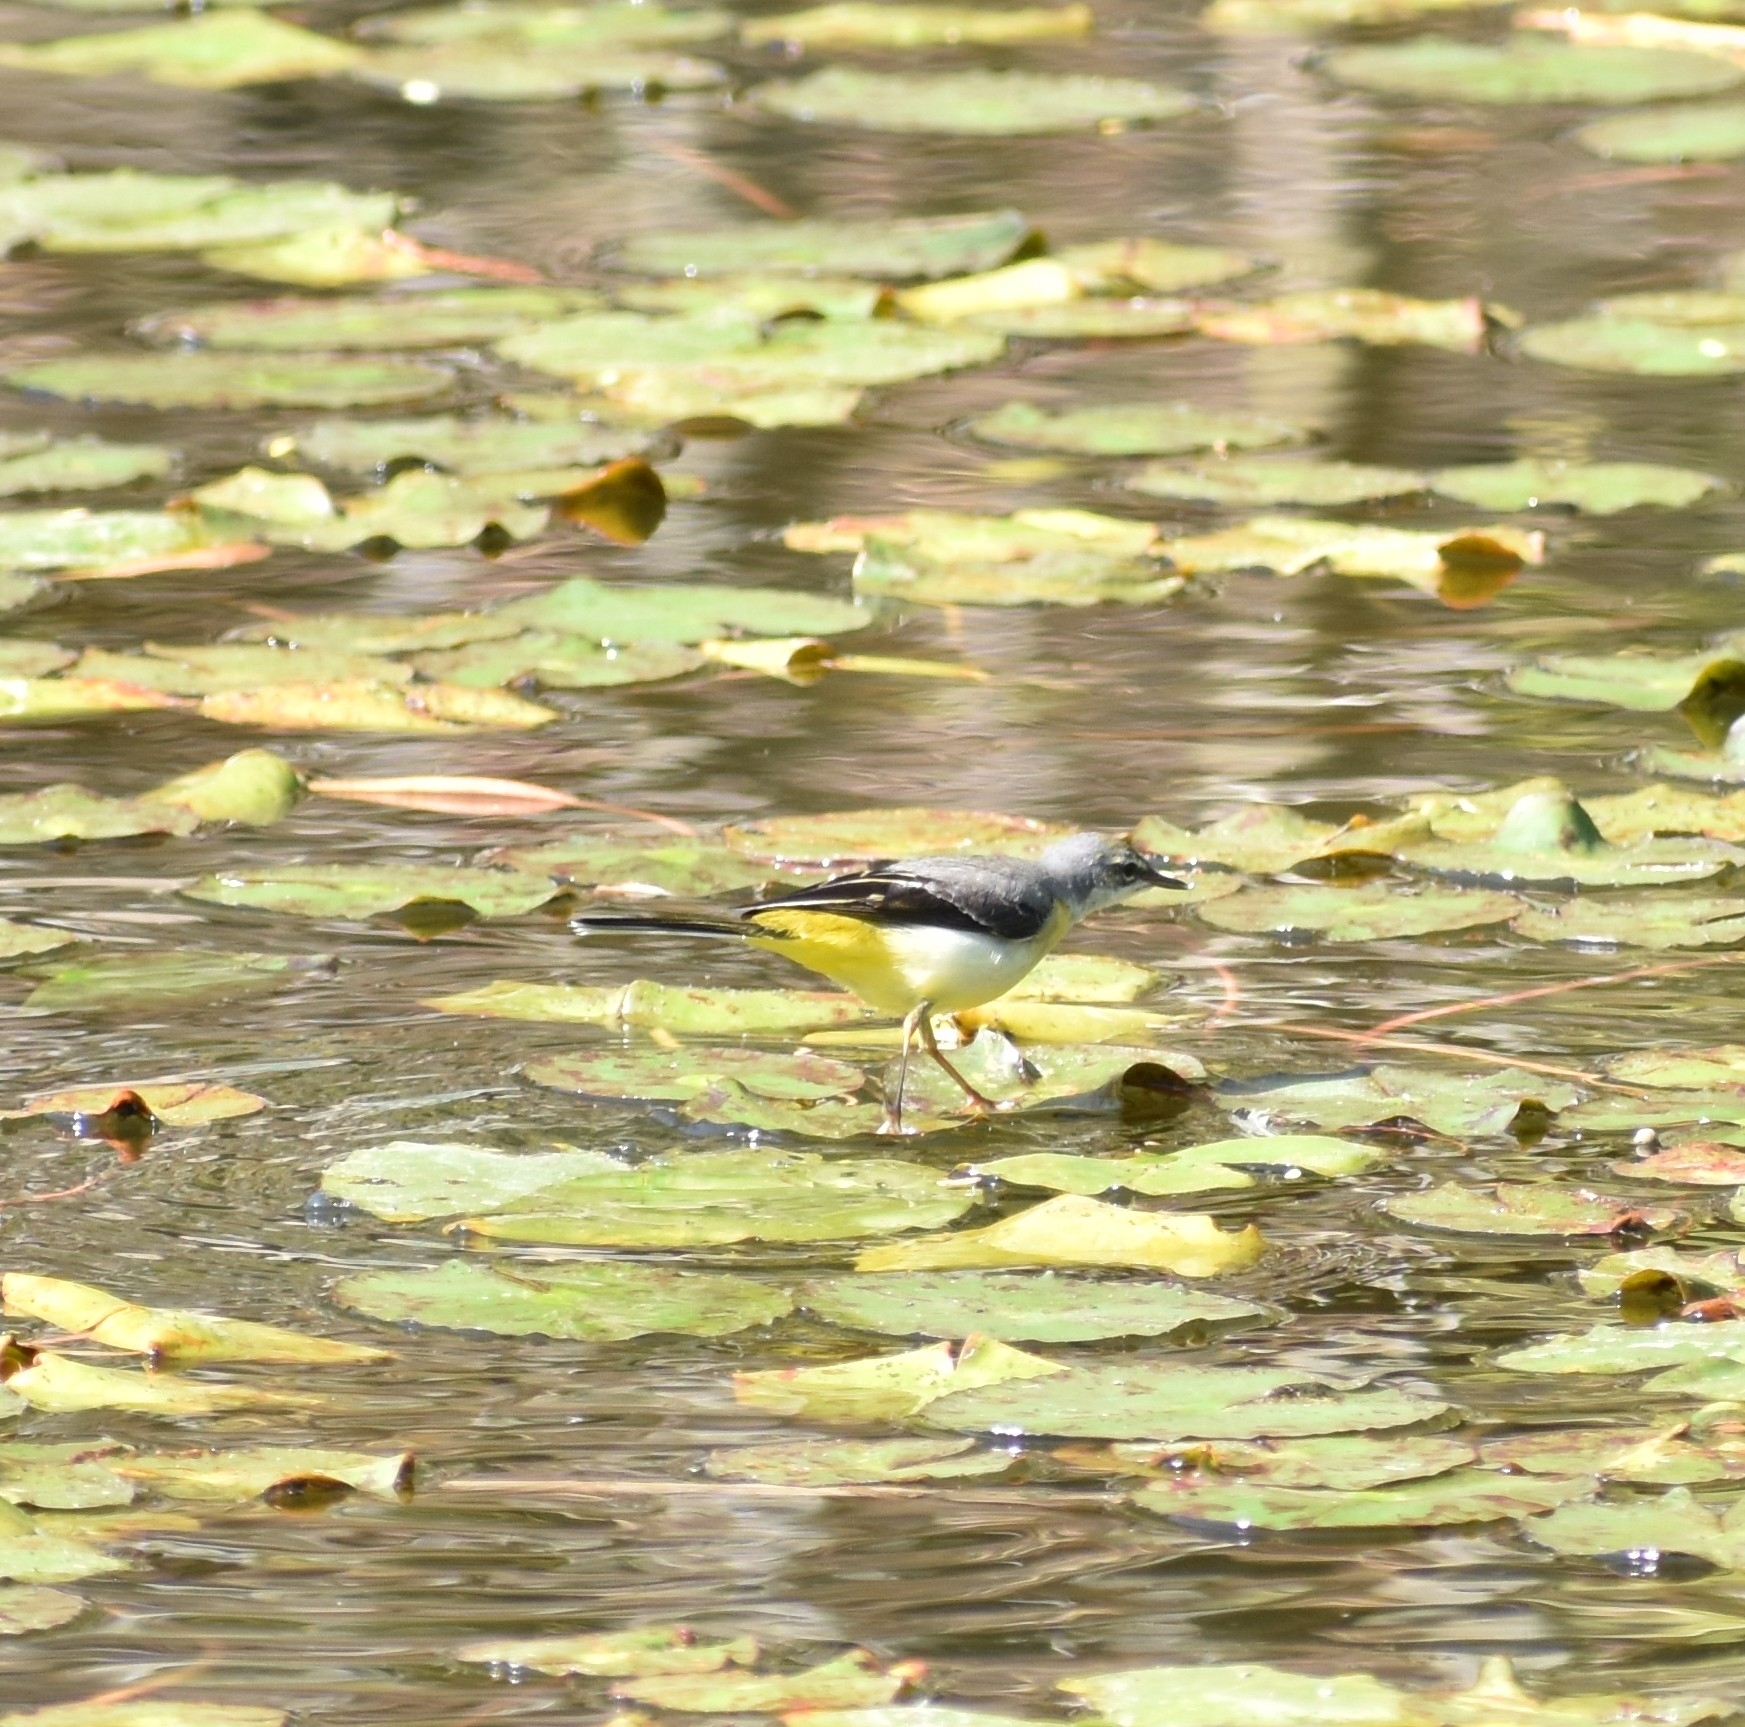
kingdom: Animalia
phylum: Chordata
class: Aves
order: Passeriformes
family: Motacillidae
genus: Motacilla
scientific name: Motacilla cinerea
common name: Grey wagtail
